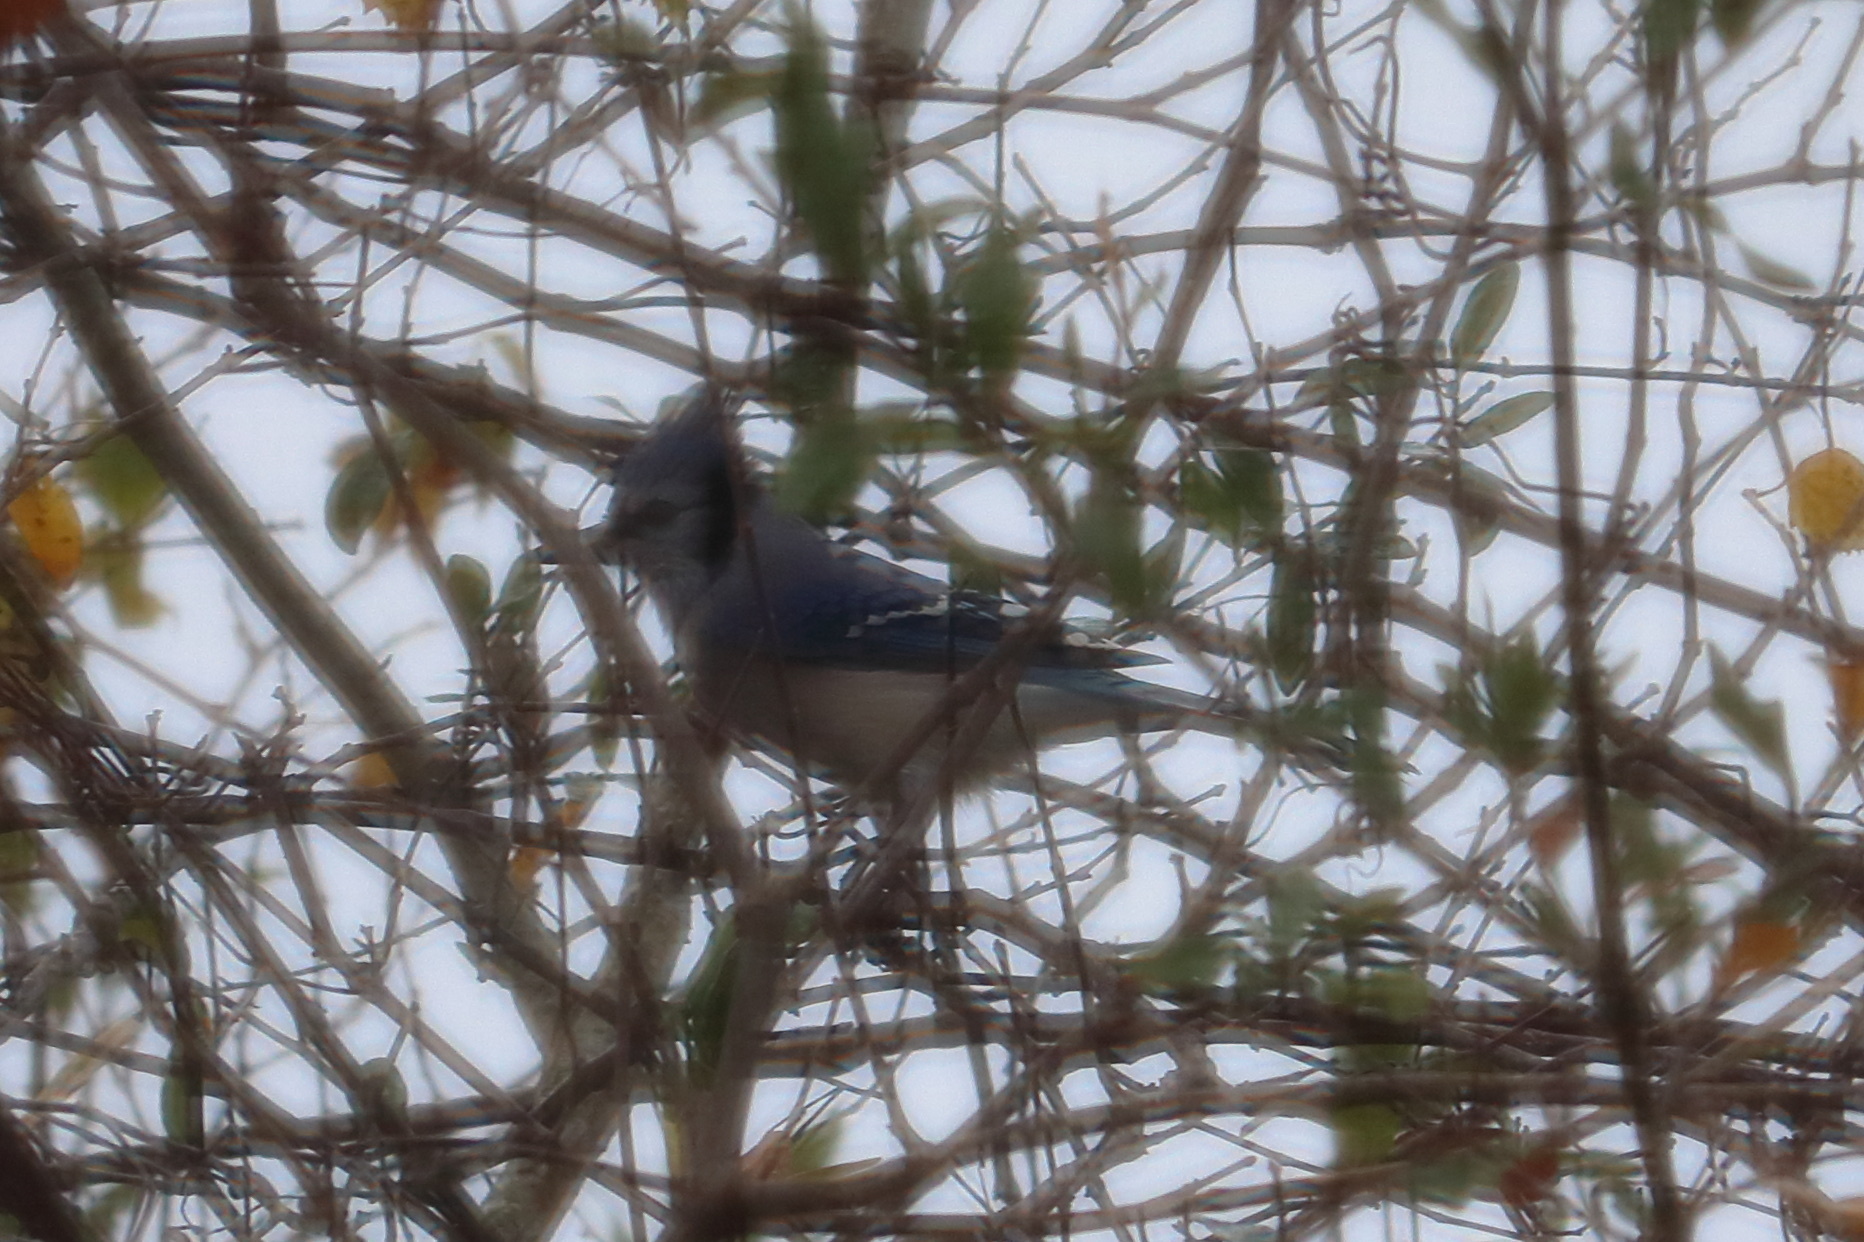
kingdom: Animalia
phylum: Chordata
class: Aves
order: Passeriformes
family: Corvidae
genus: Cyanocitta
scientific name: Cyanocitta cristata
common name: Blue jay
